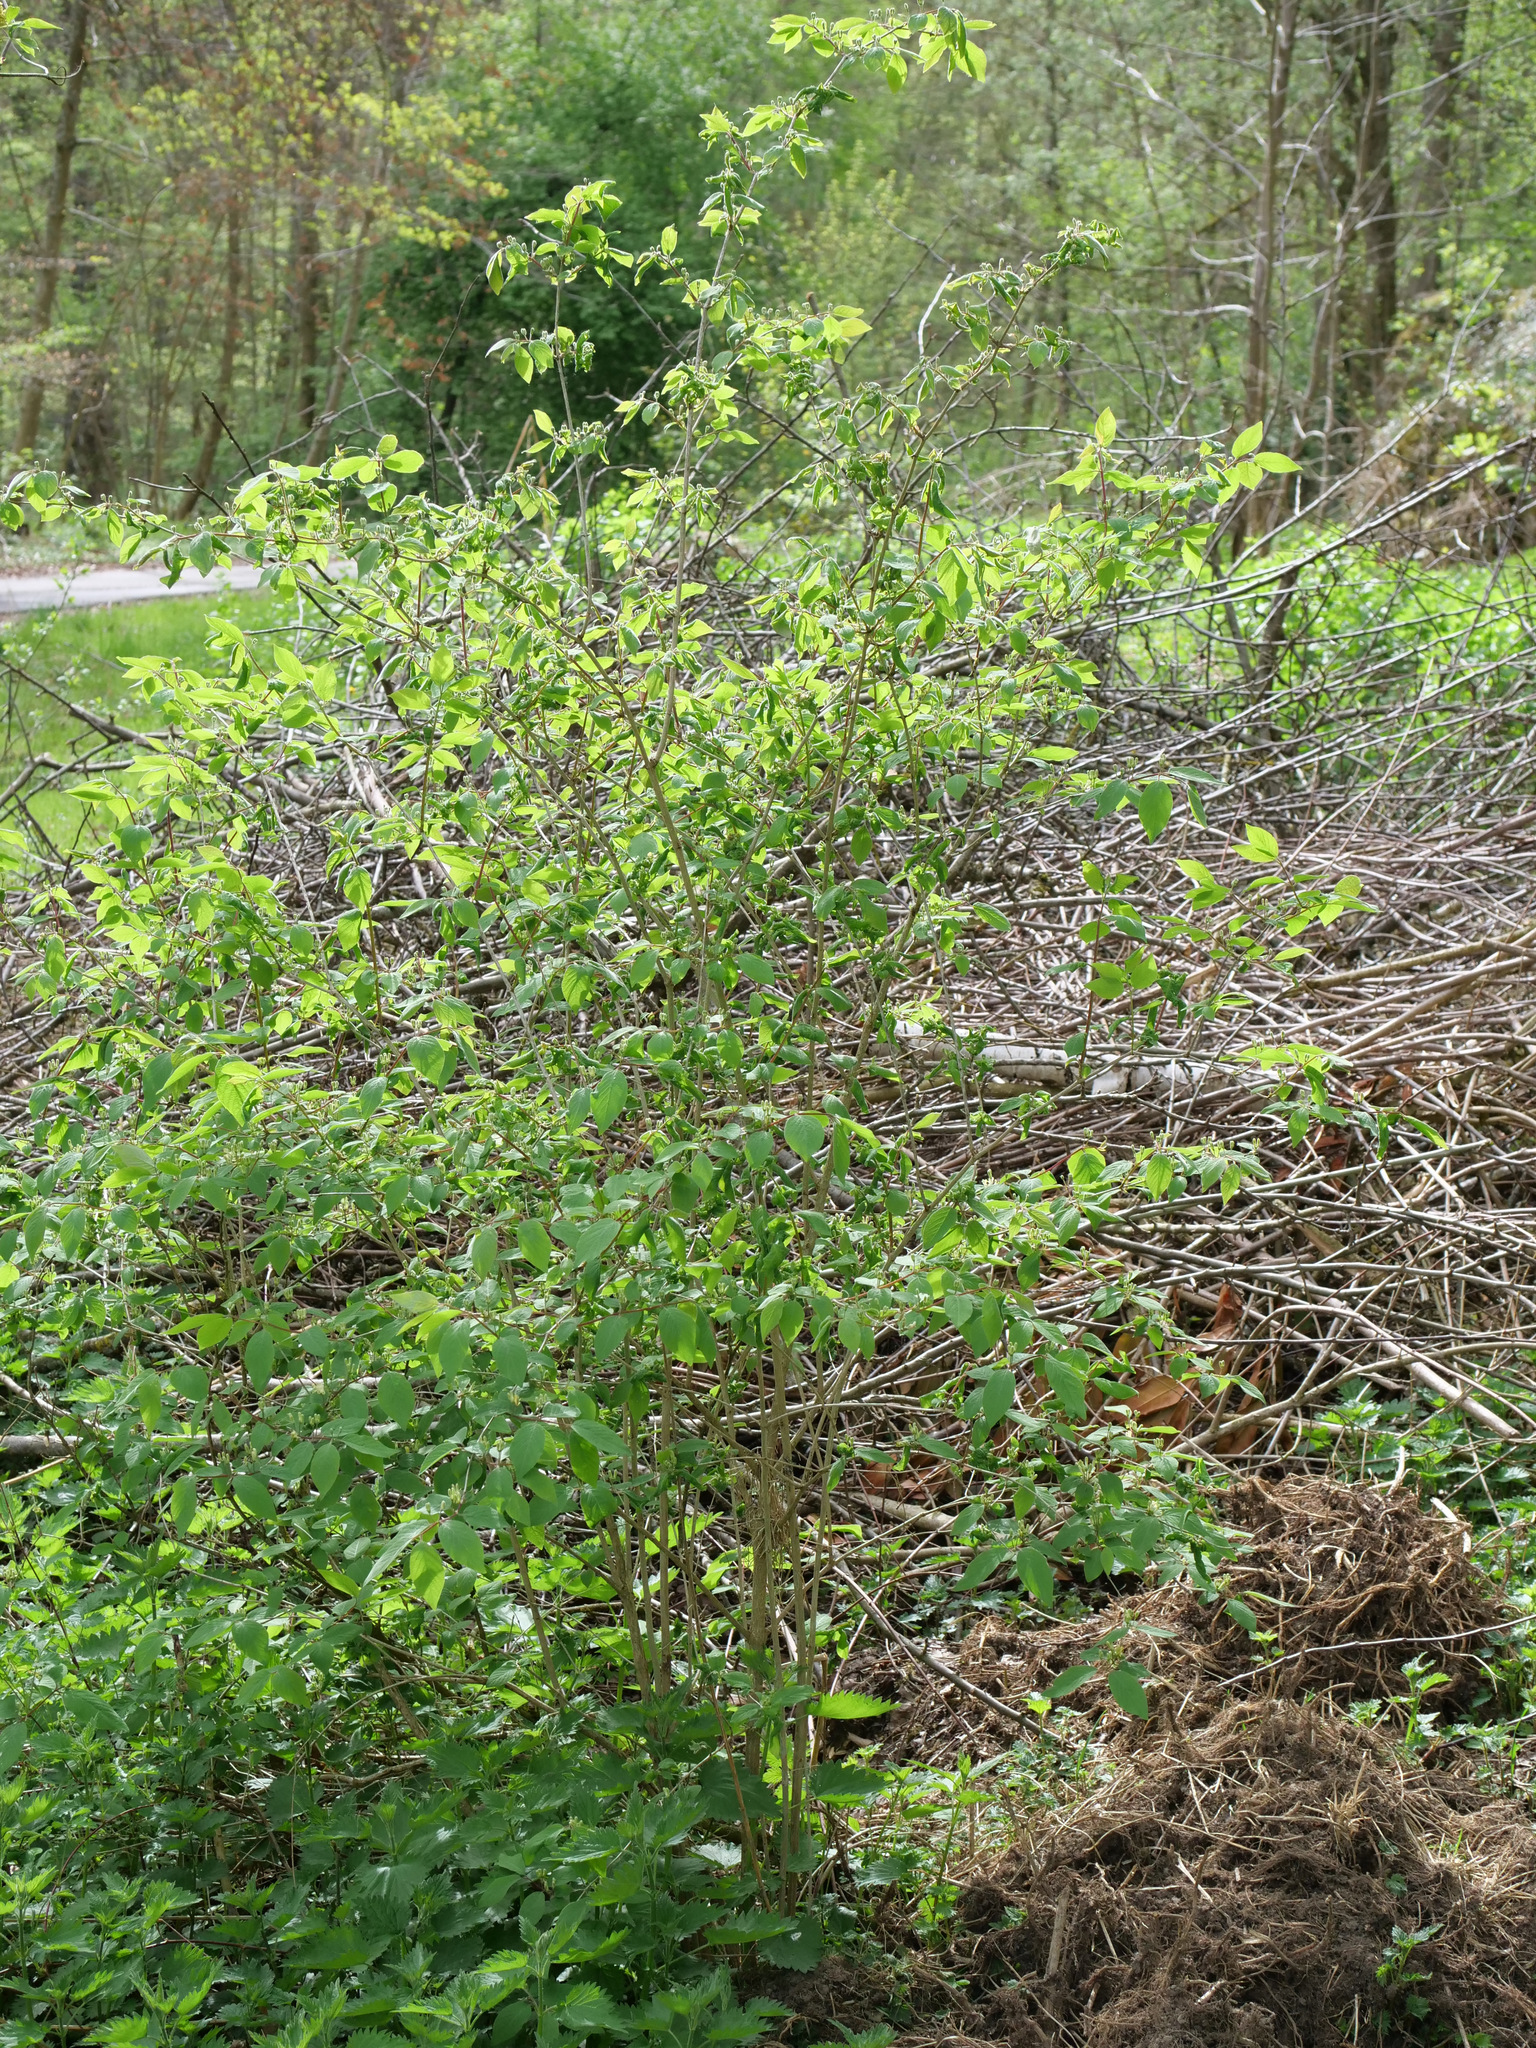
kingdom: Plantae
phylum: Tracheophyta
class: Magnoliopsida
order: Dipsacales
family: Caprifoliaceae
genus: Lonicera
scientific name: Lonicera xylosteum
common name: Fly honeysuckle
